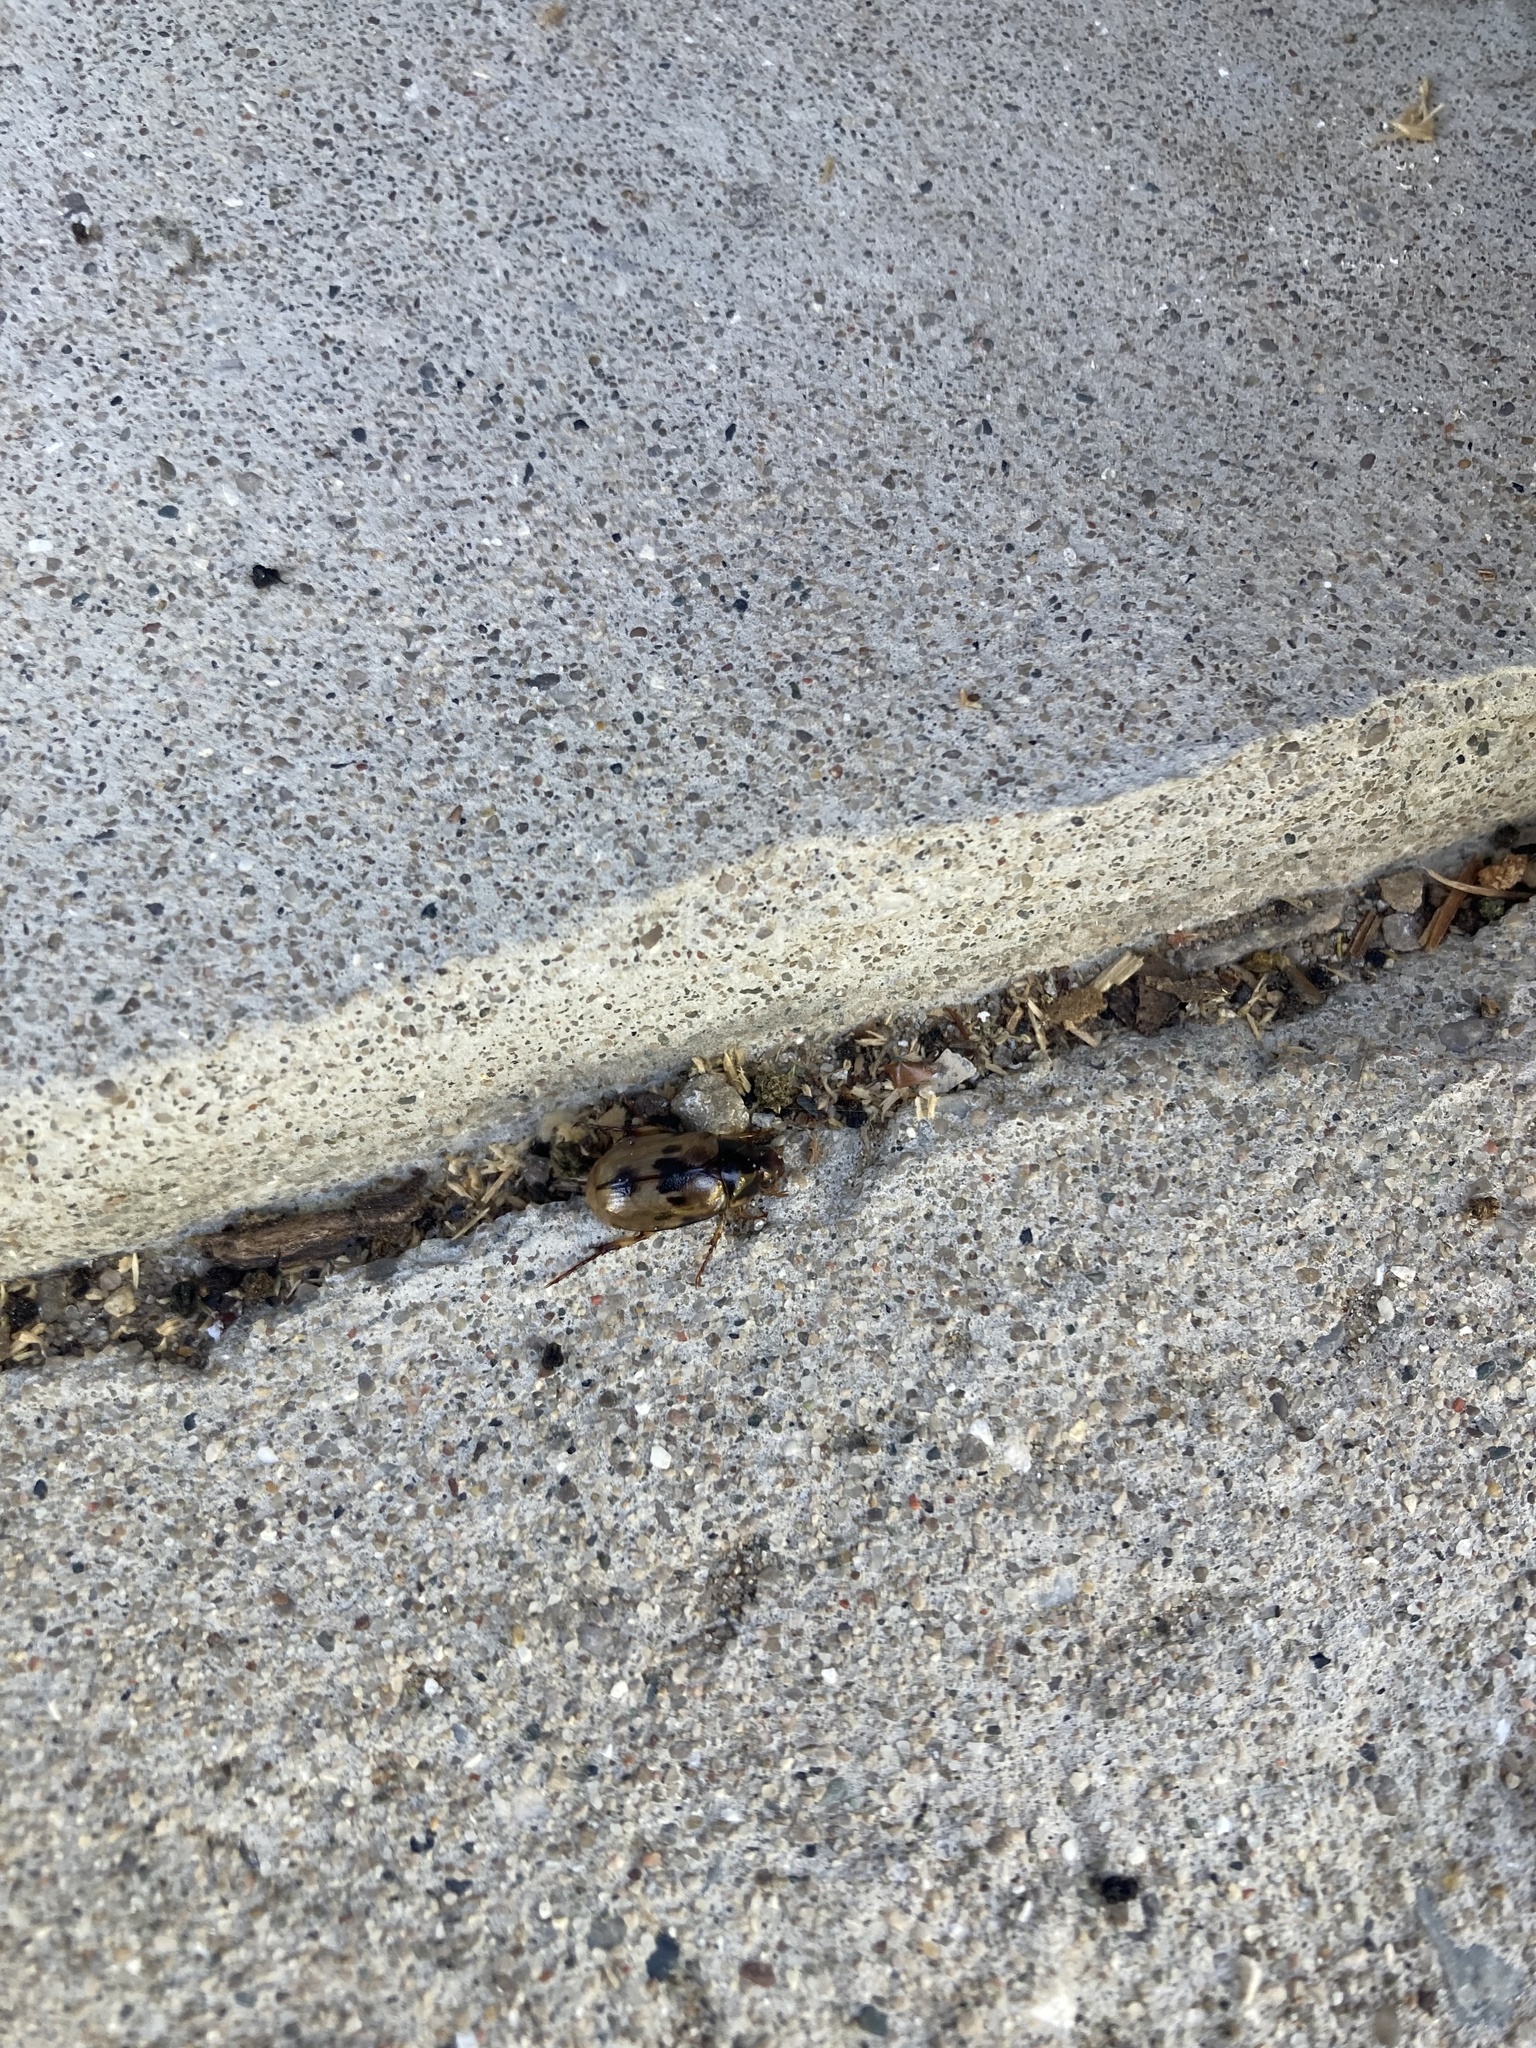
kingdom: Animalia
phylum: Arthropoda
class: Insecta
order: Coleoptera
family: Scarabaeidae
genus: Exomala
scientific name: Exomala orientalis
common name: Oriental beetle
